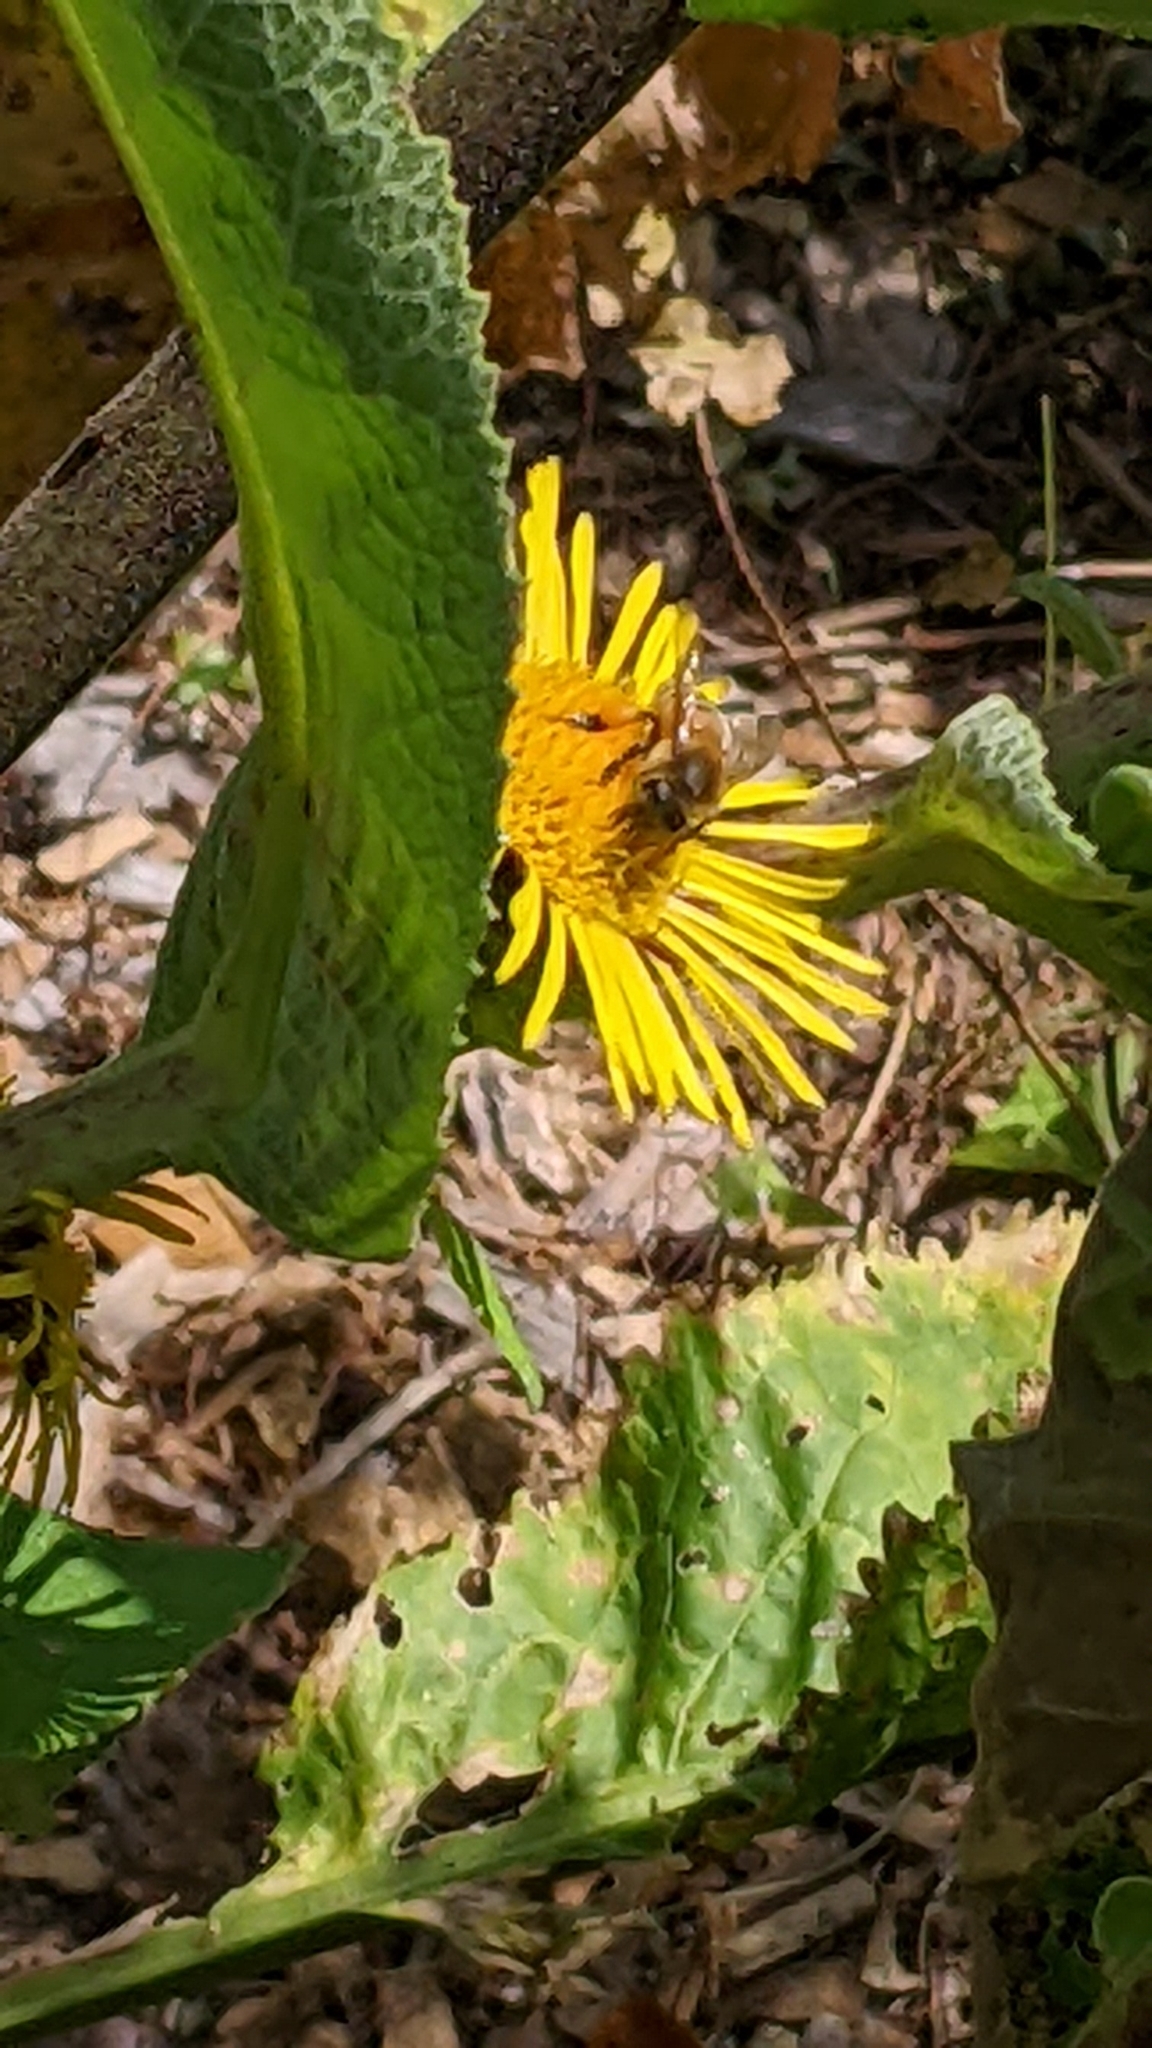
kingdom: Animalia
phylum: Arthropoda
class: Insecta
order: Hymenoptera
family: Apidae
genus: Apis
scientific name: Apis mellifera
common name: Honey bee
